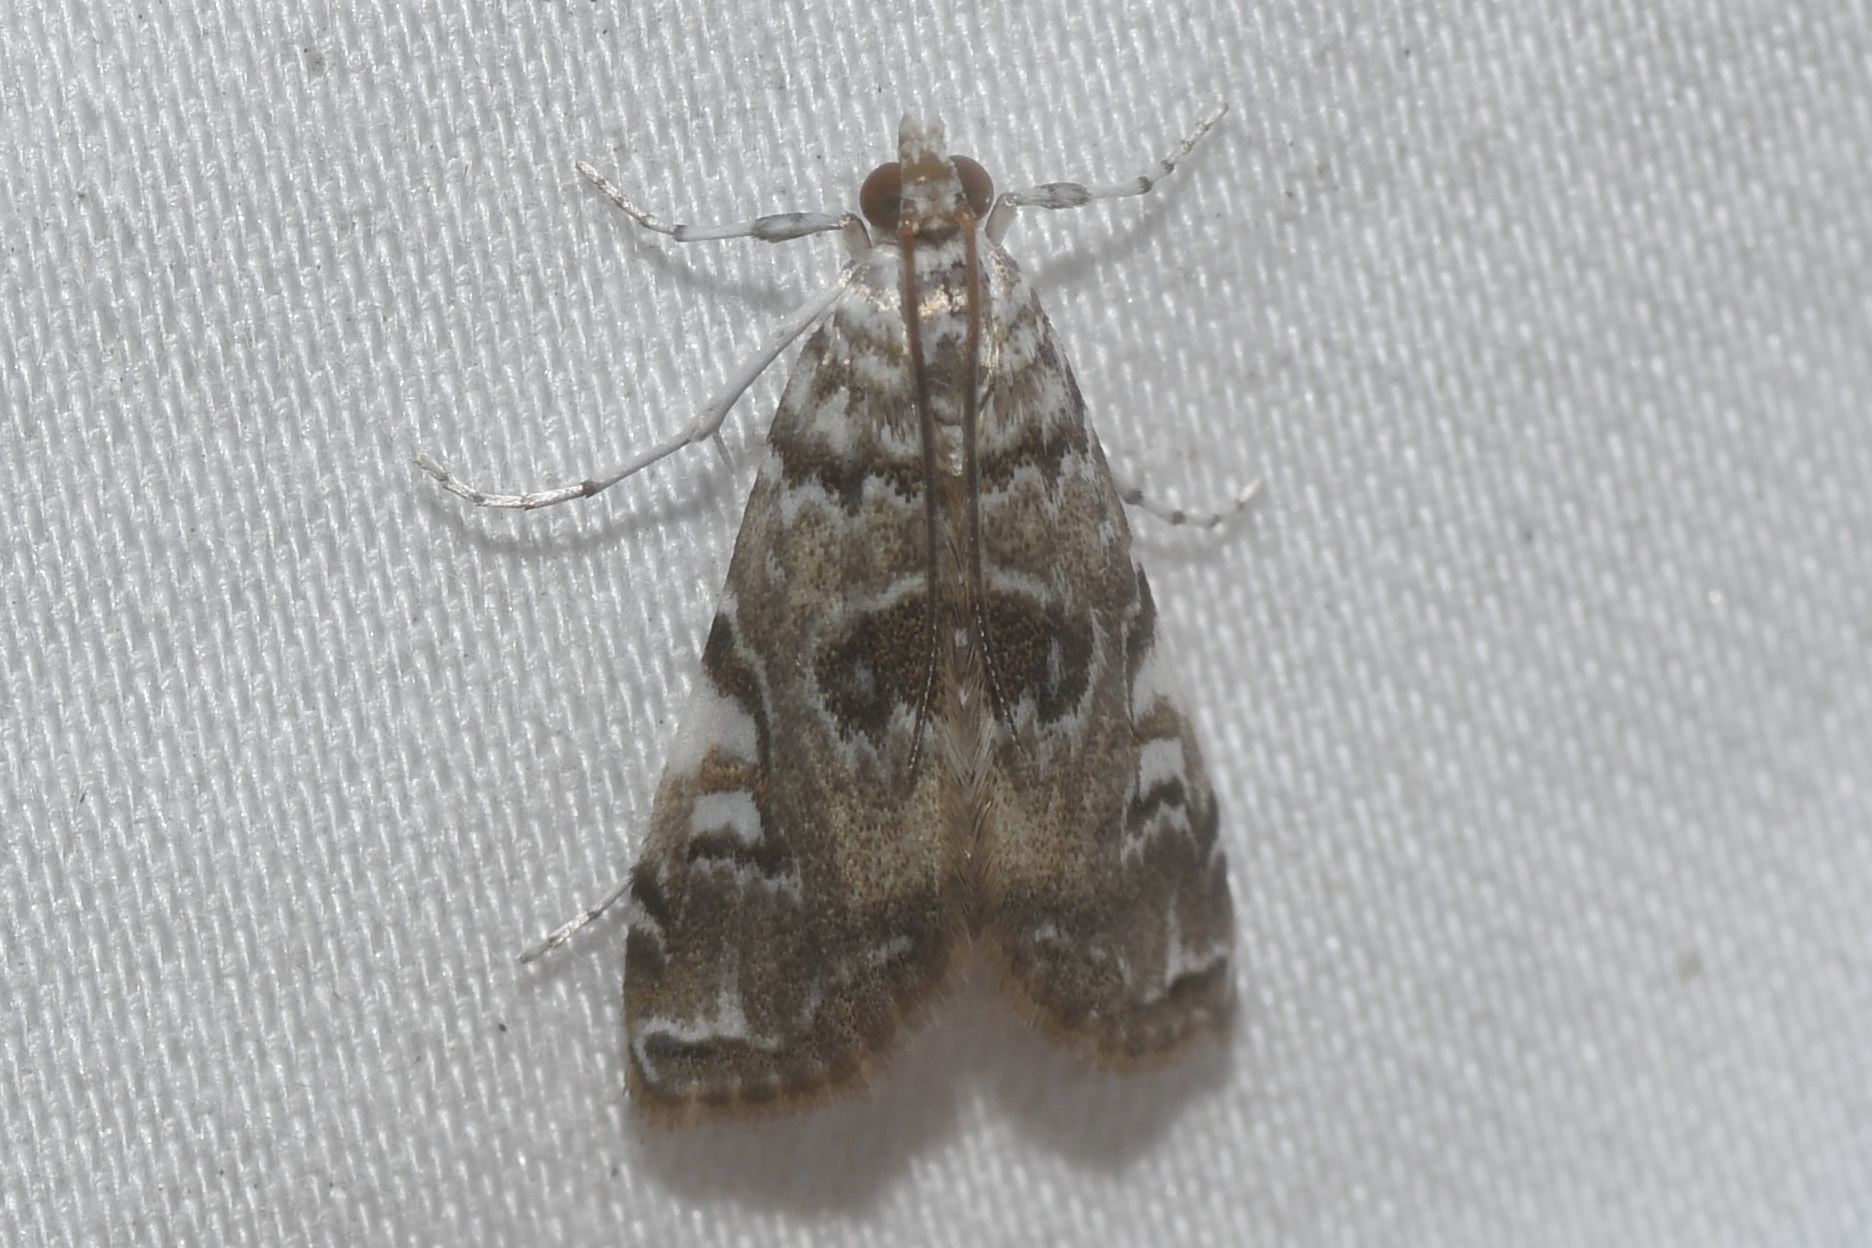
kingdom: Animalia
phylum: Arthropoda
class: Insecta
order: Lepidoptera
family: Crambidae
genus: Elophila
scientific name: Elophila gyralis
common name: Waterlily borer moth
